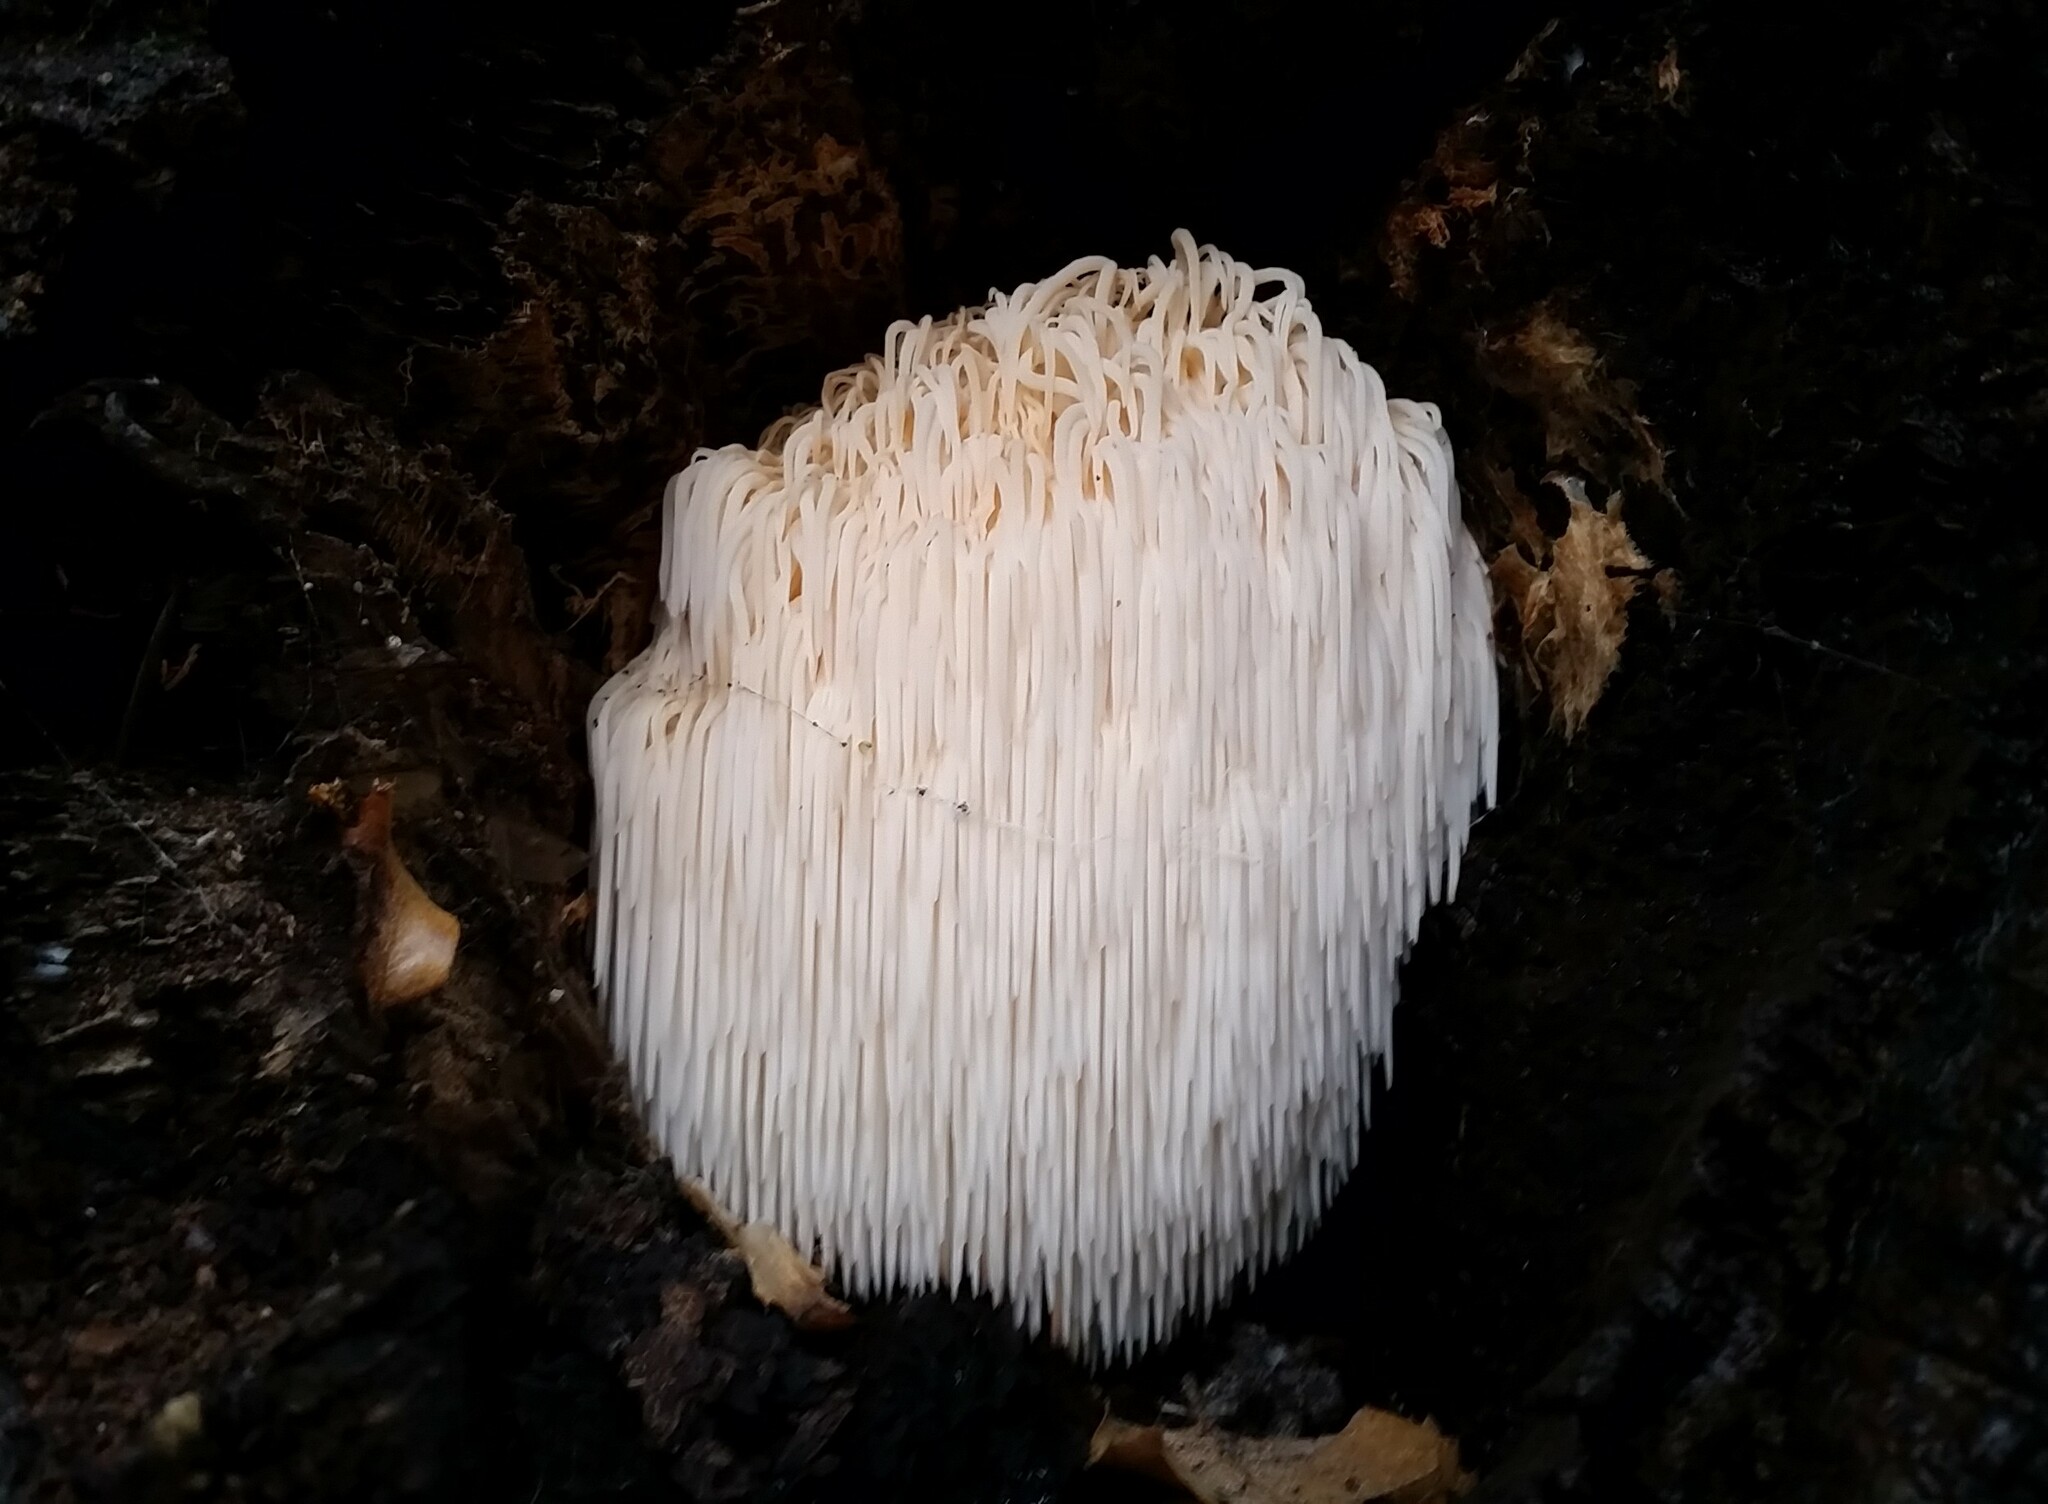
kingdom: Fungi
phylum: Basidiomycota
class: Agaricomycetes
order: Russulales
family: Hericiaceae
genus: Hericium
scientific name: Hericium erinaceus
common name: Bearded tooth
